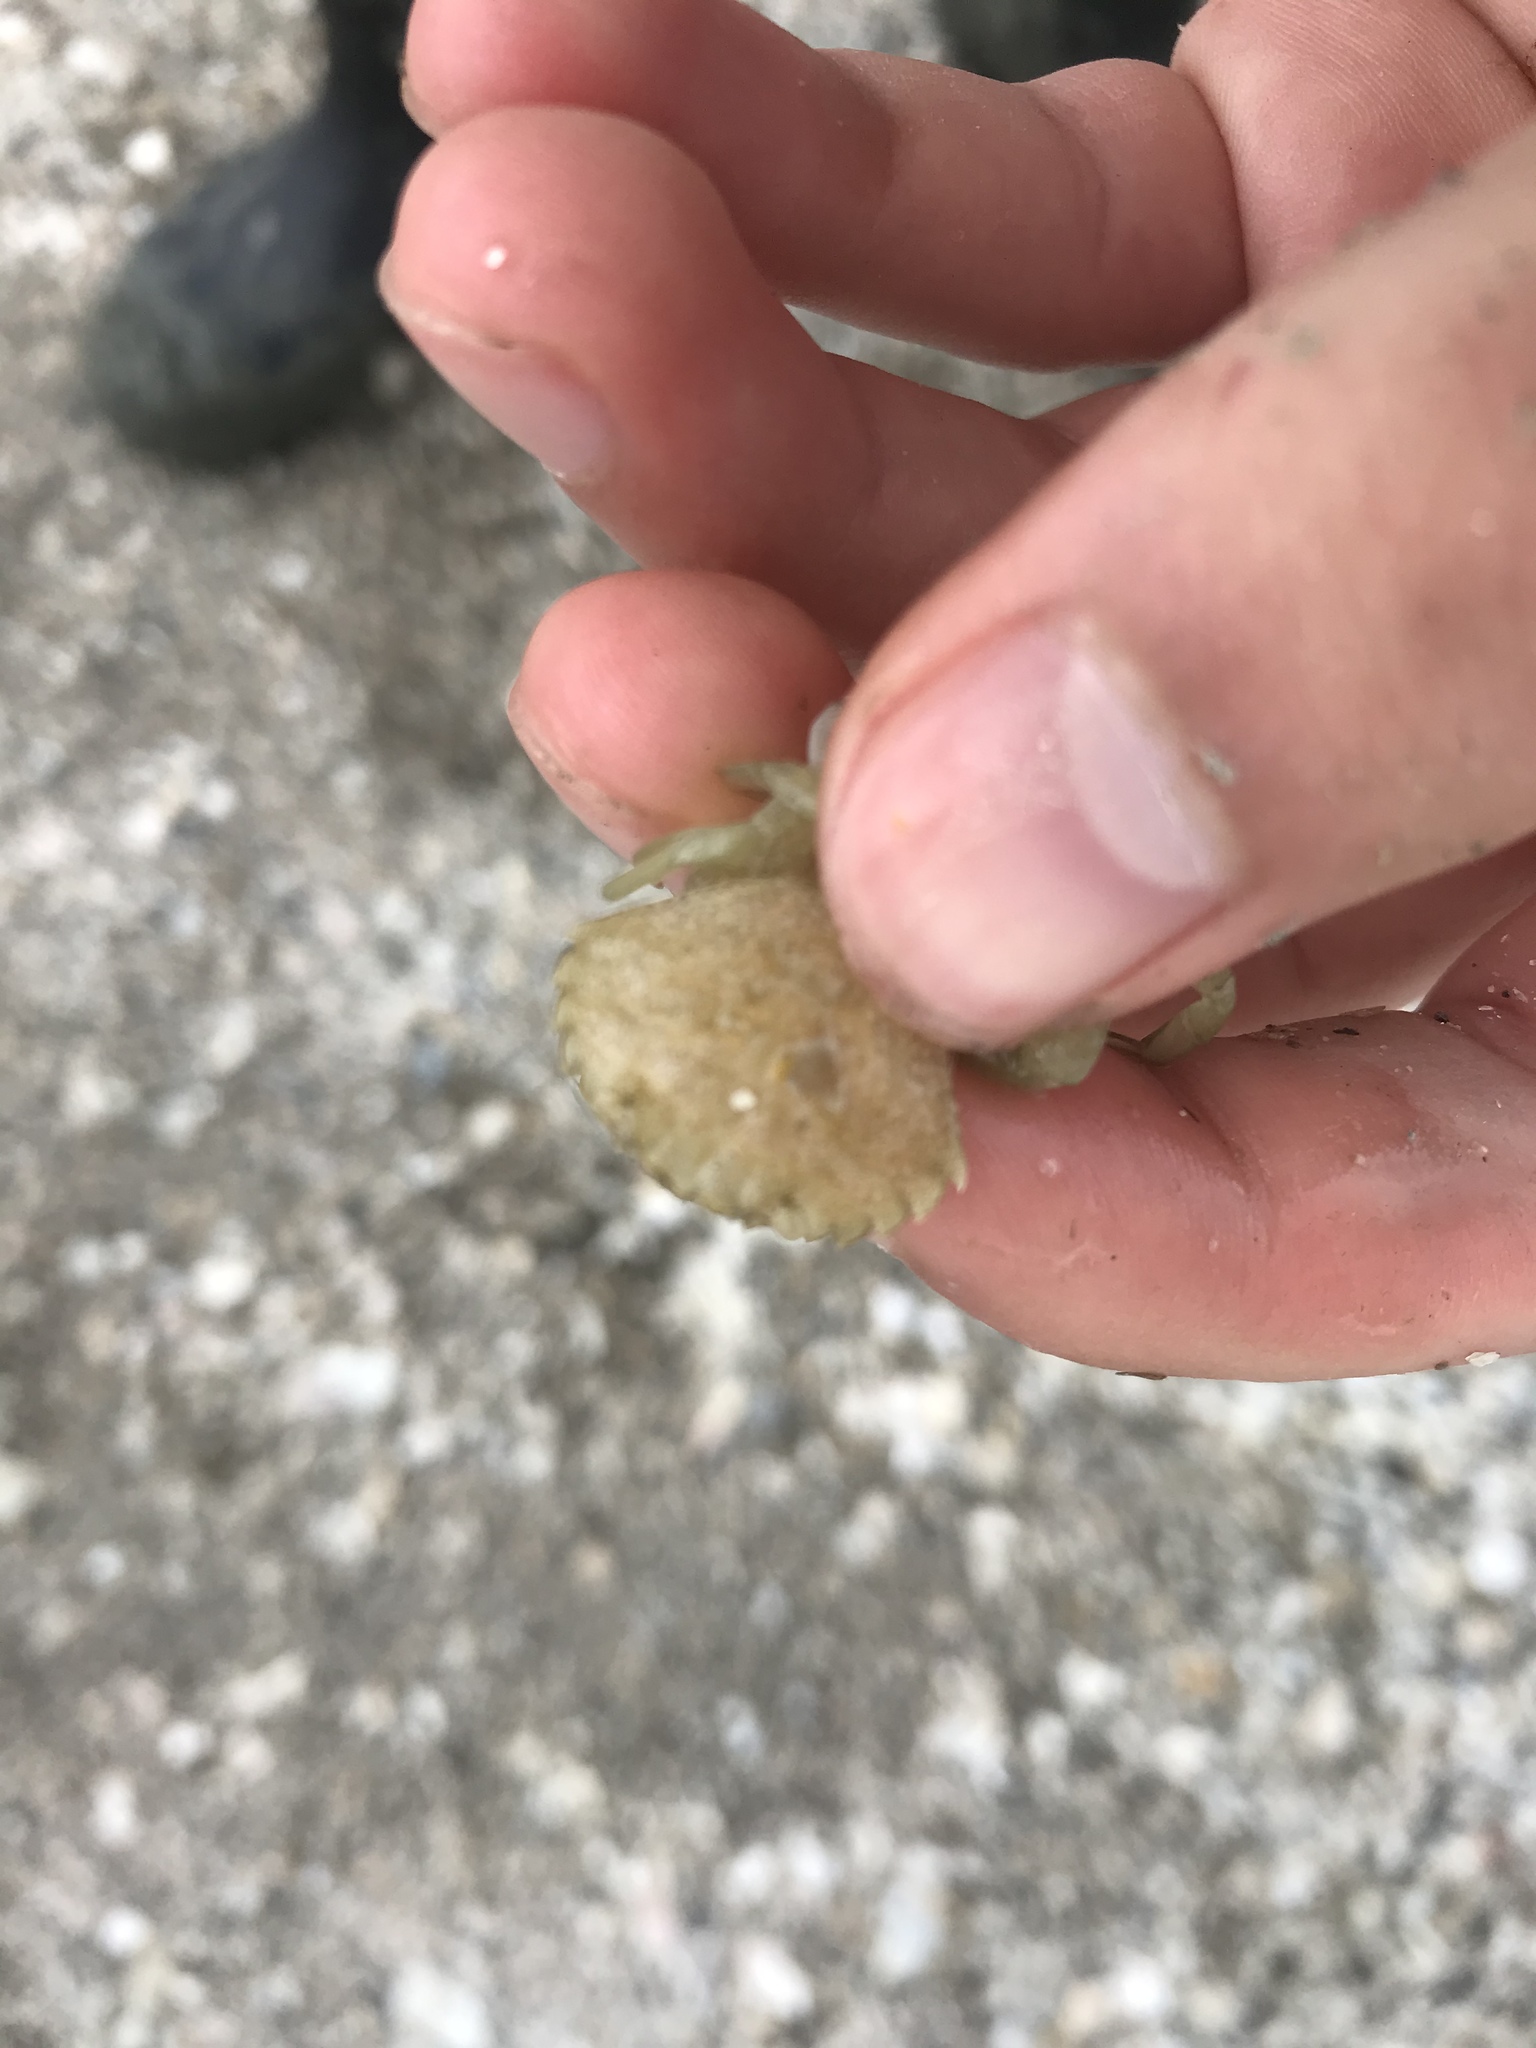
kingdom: Animalia
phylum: Arthropoda
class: Malacostraca
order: Decapoda
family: Carcinidae
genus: Carcinus
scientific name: Carcinus maenas
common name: European green crab
